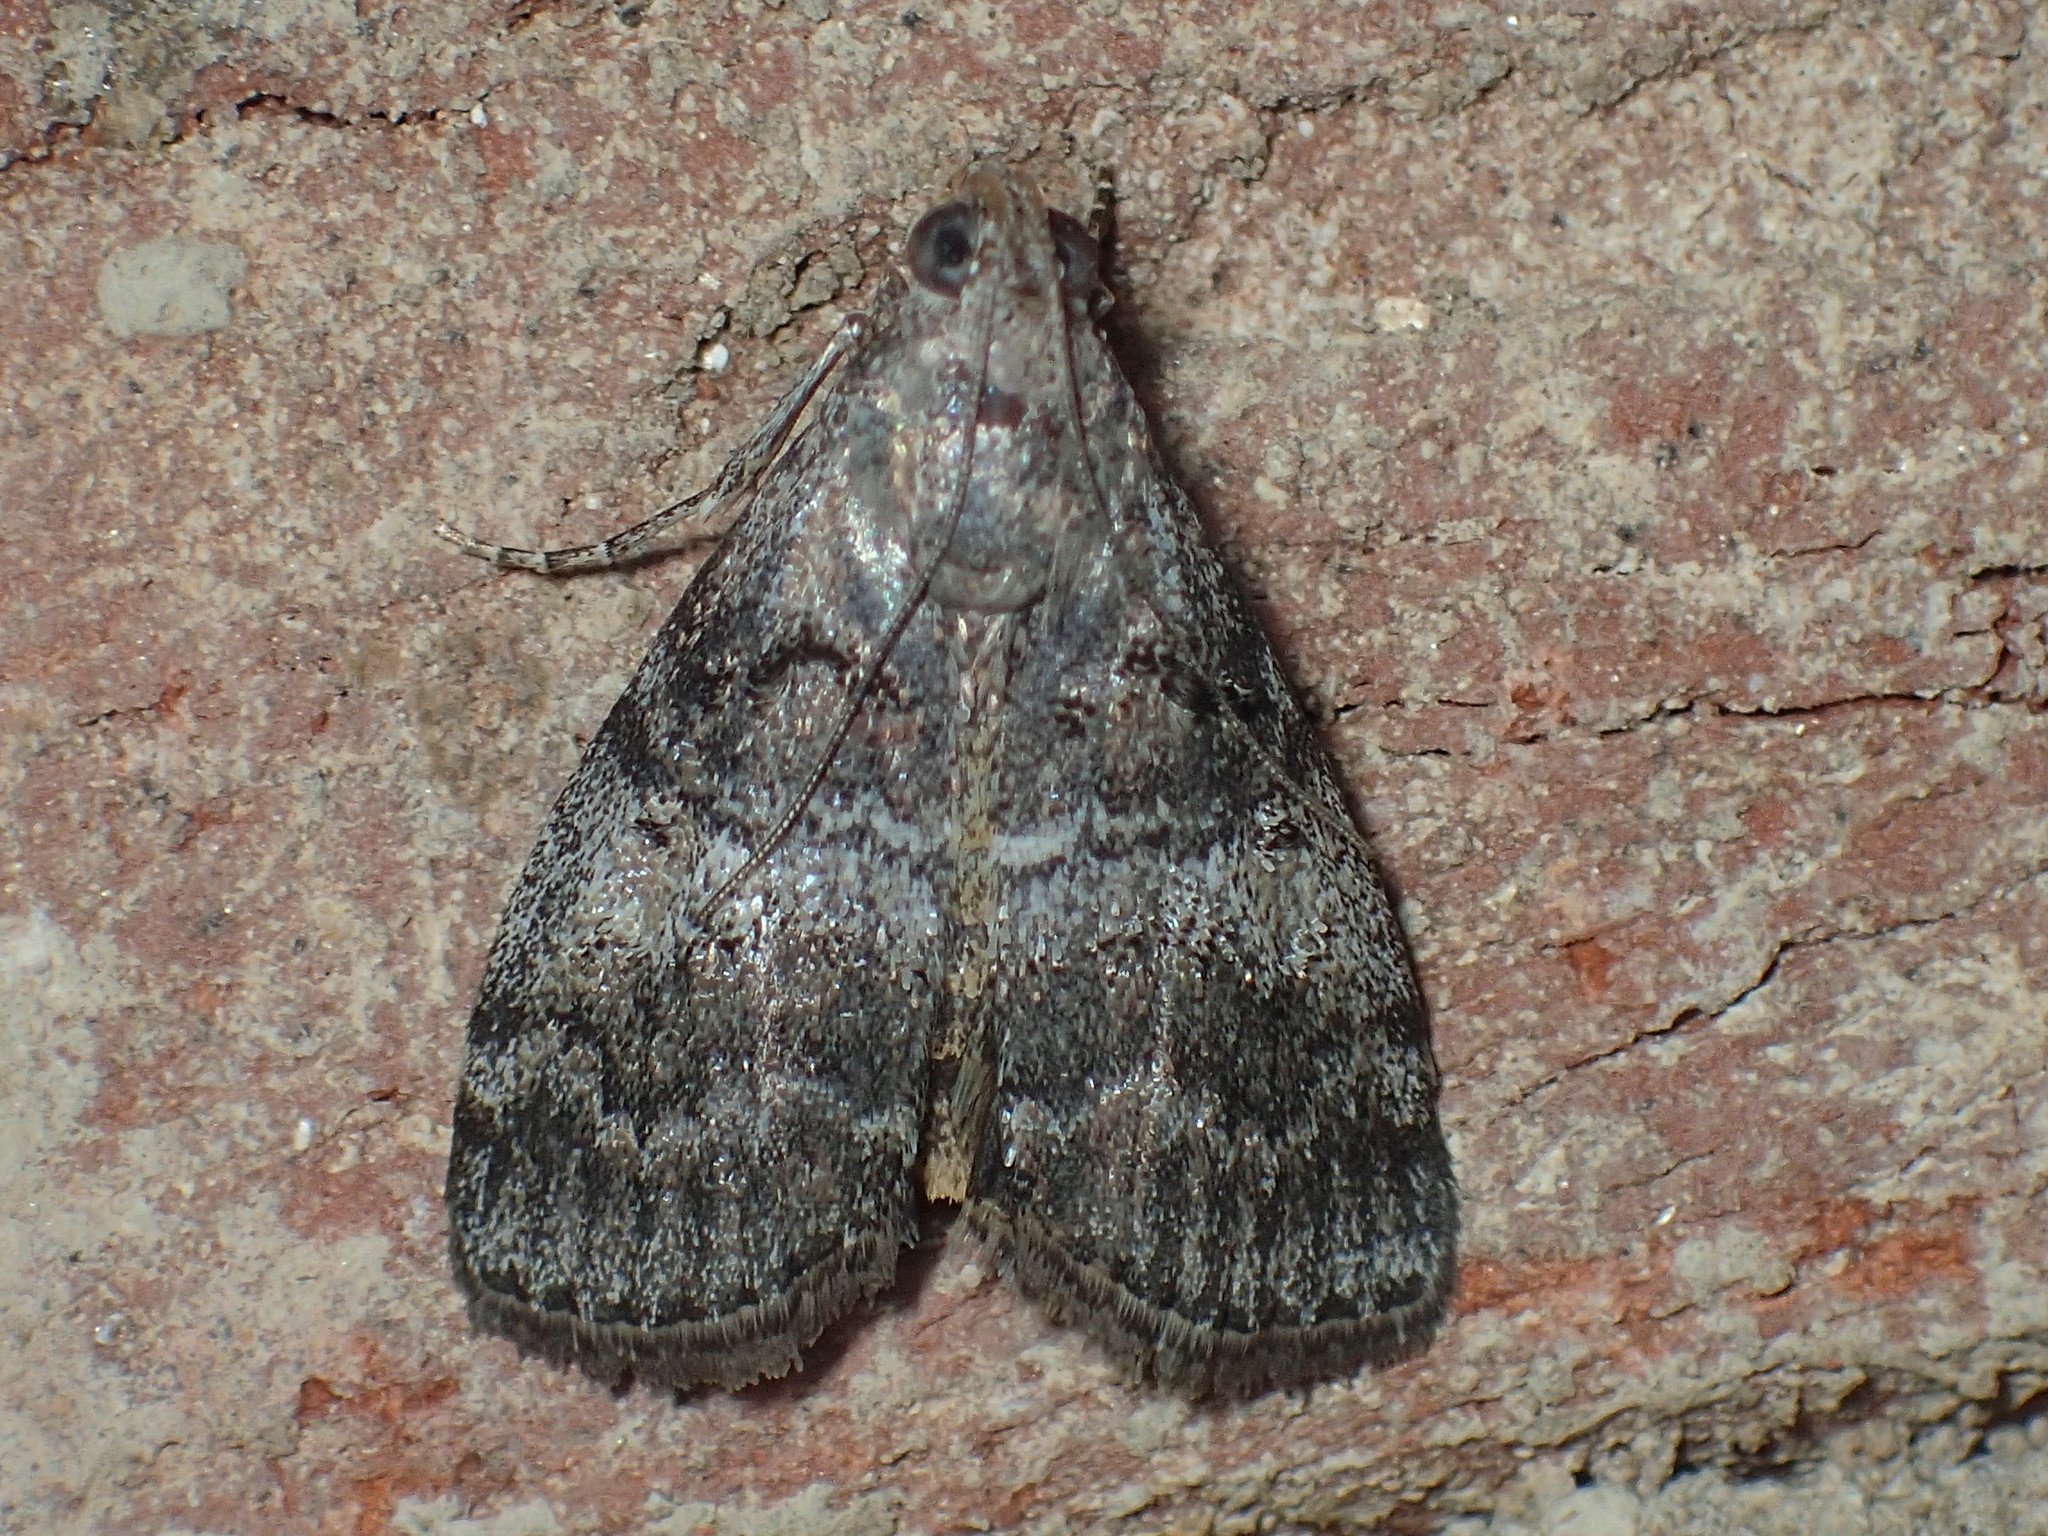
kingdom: Animalia
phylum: Arthropoda
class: Insecta
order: Lepidoptera
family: Pyralidae
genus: Pococera
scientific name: Pococera asperatella
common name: Maple webworm moth
